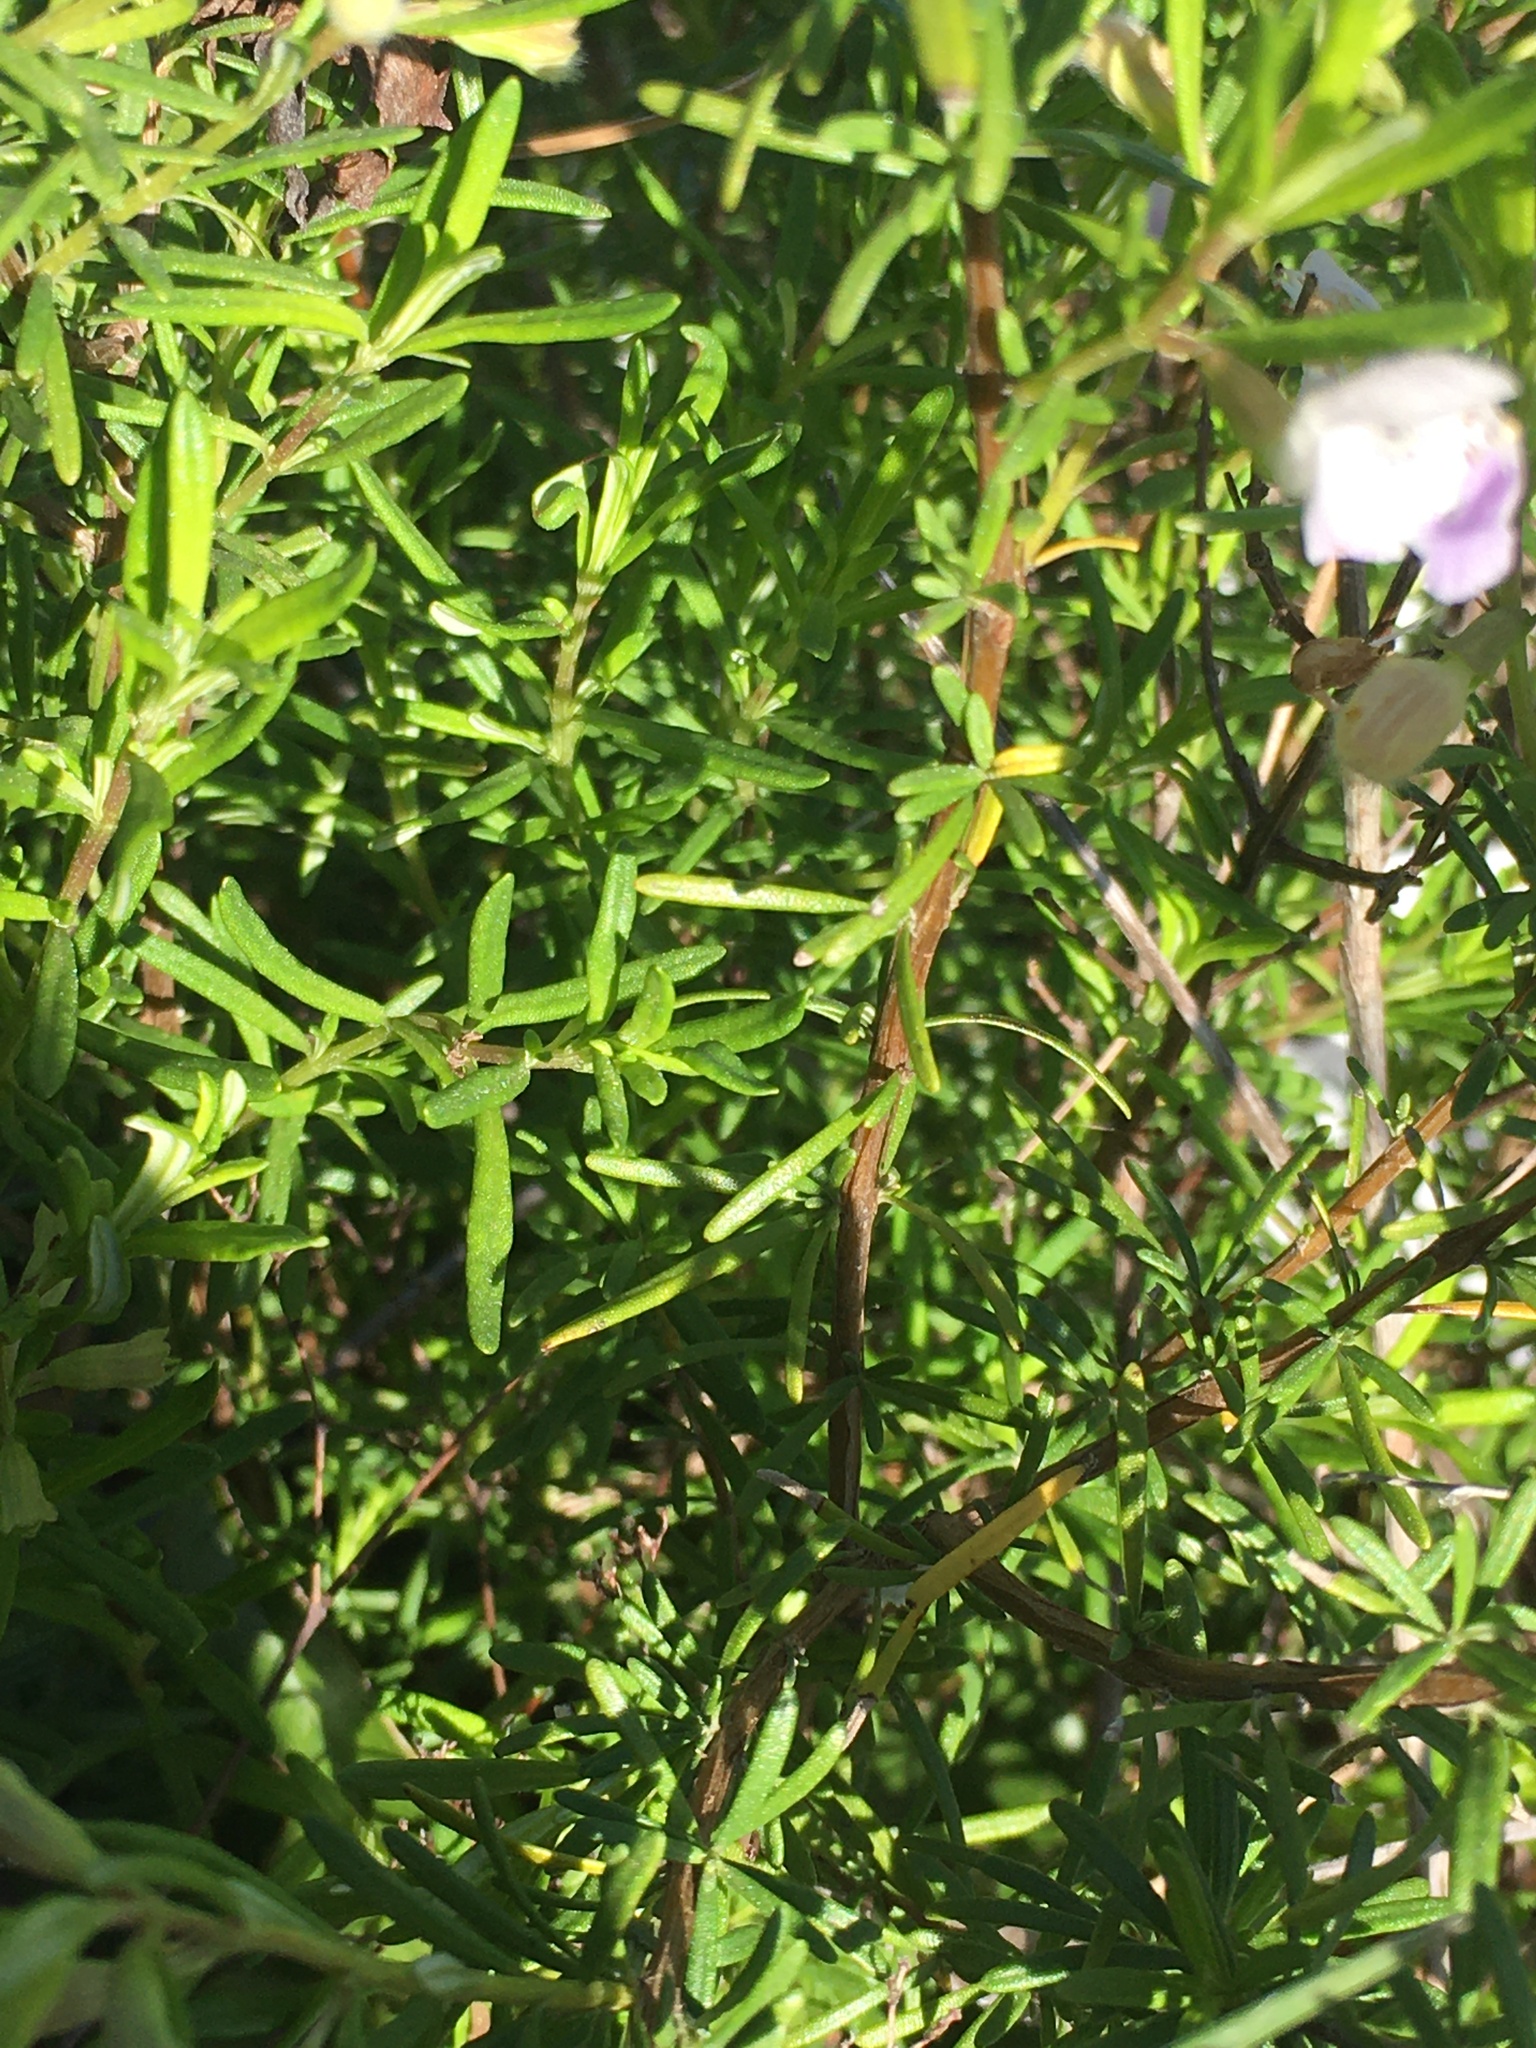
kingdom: Plantae
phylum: Tracheophyta
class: Magnoliopsida
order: Lamiales
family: Lamiaceae
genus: Conradina
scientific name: Conradina glabra
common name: Apalachicola-rosemary
